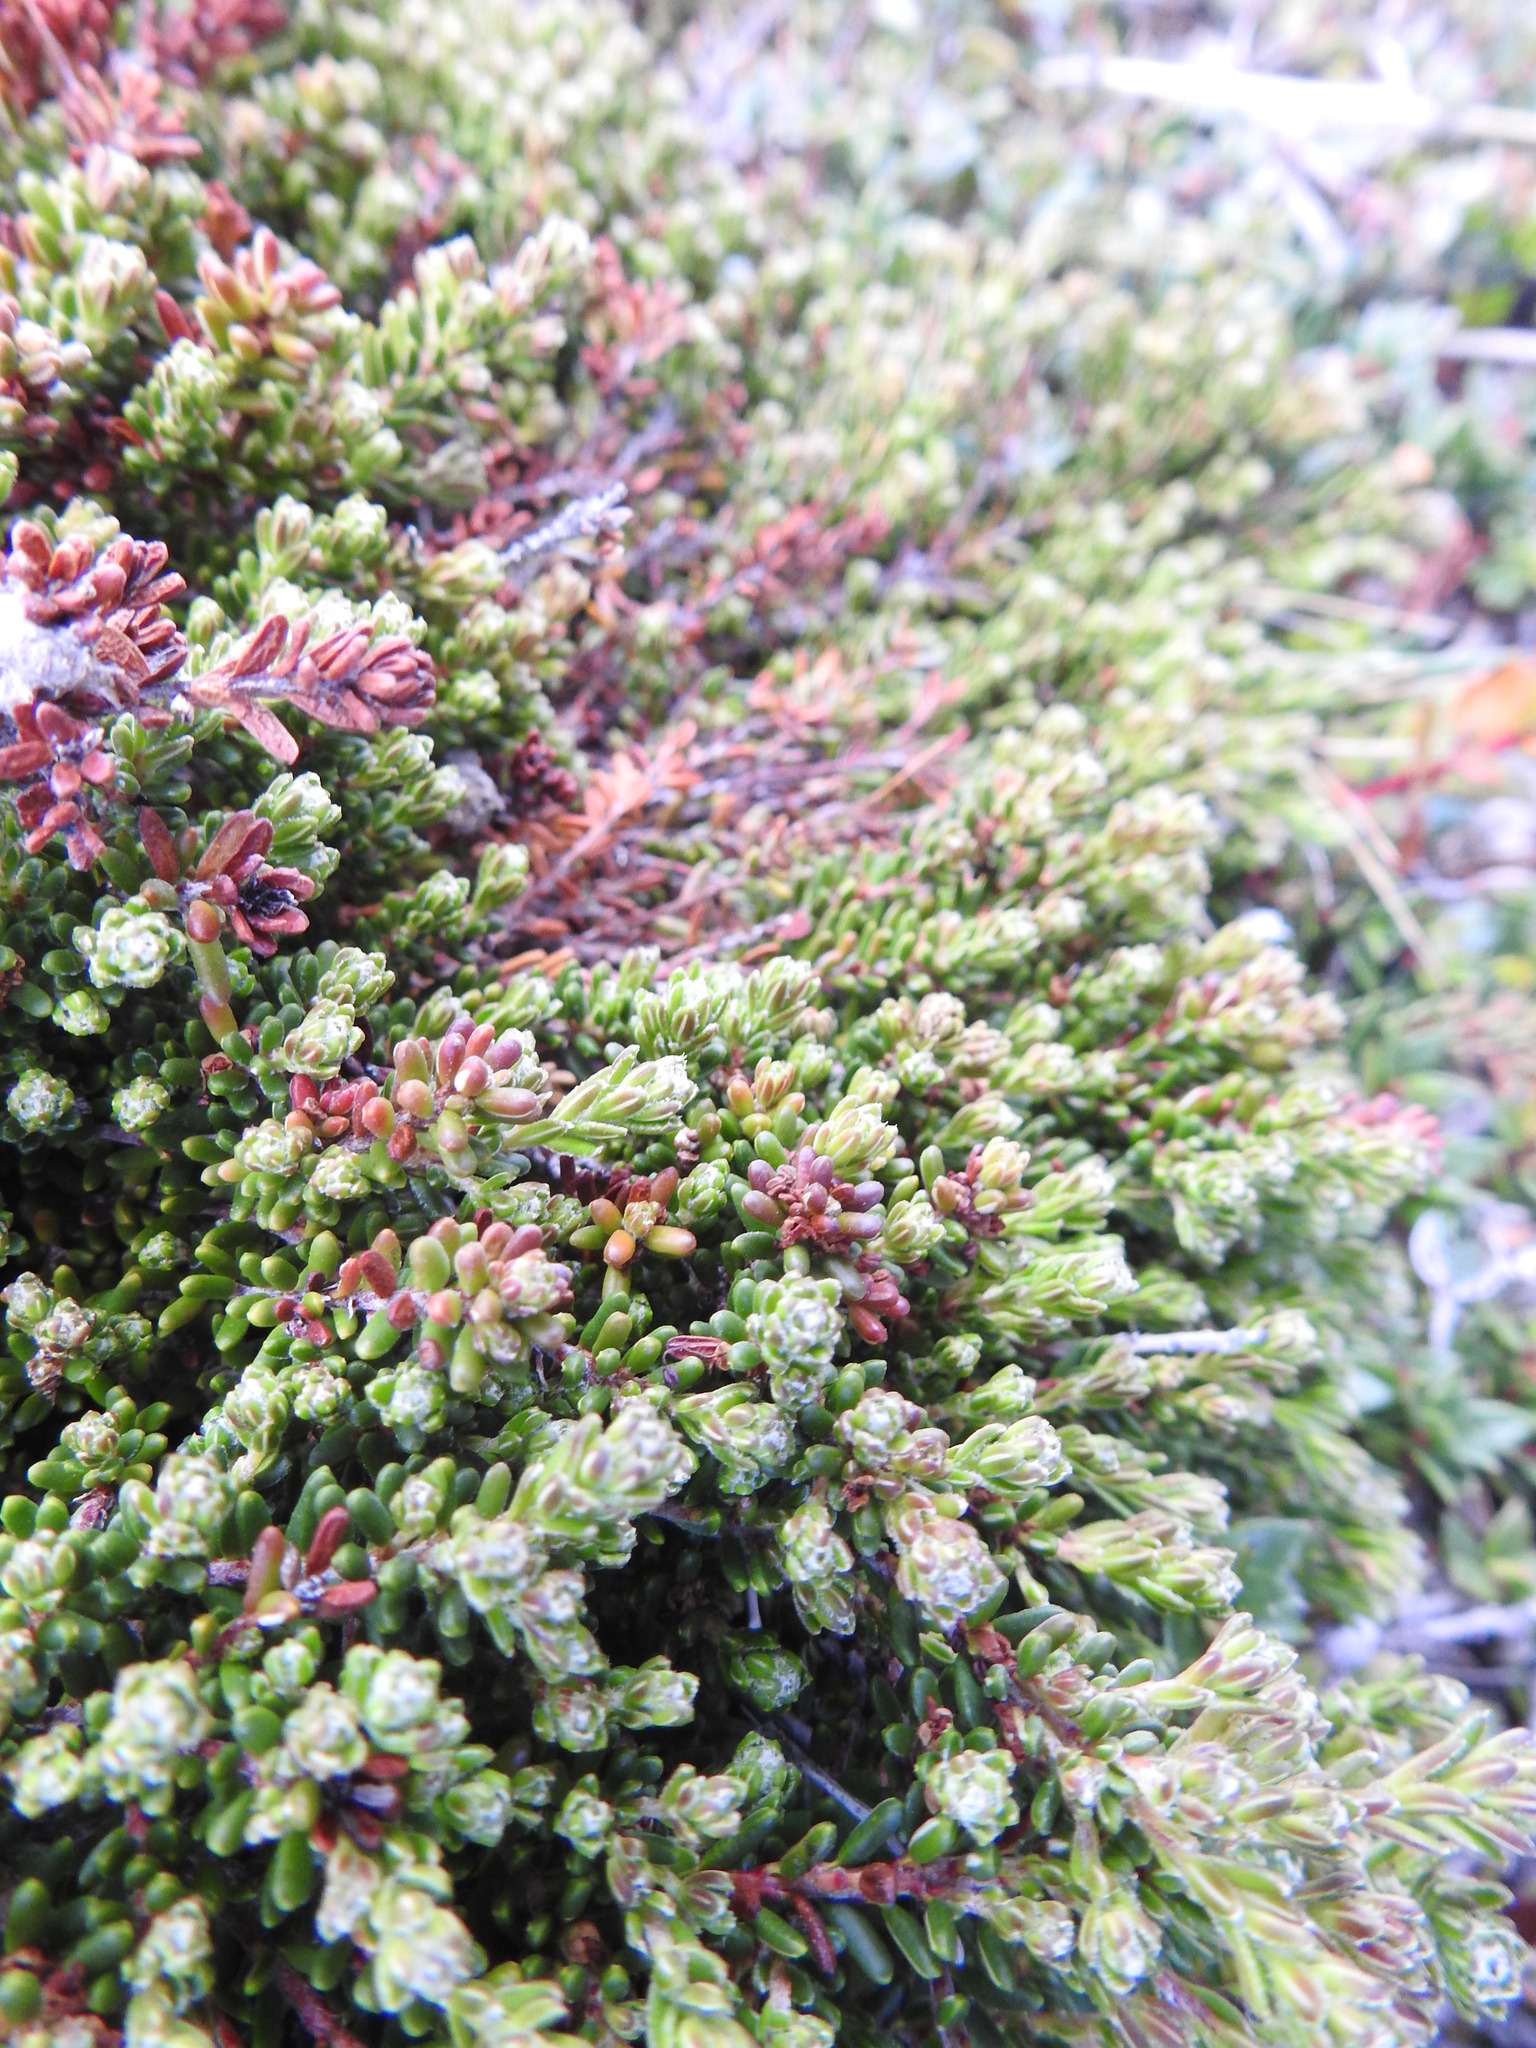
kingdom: Plantae
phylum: Tracheophyta
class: Magnoliopsida
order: Ericales
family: Ericaceae
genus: Empetrum
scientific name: Empetrum rubrum
